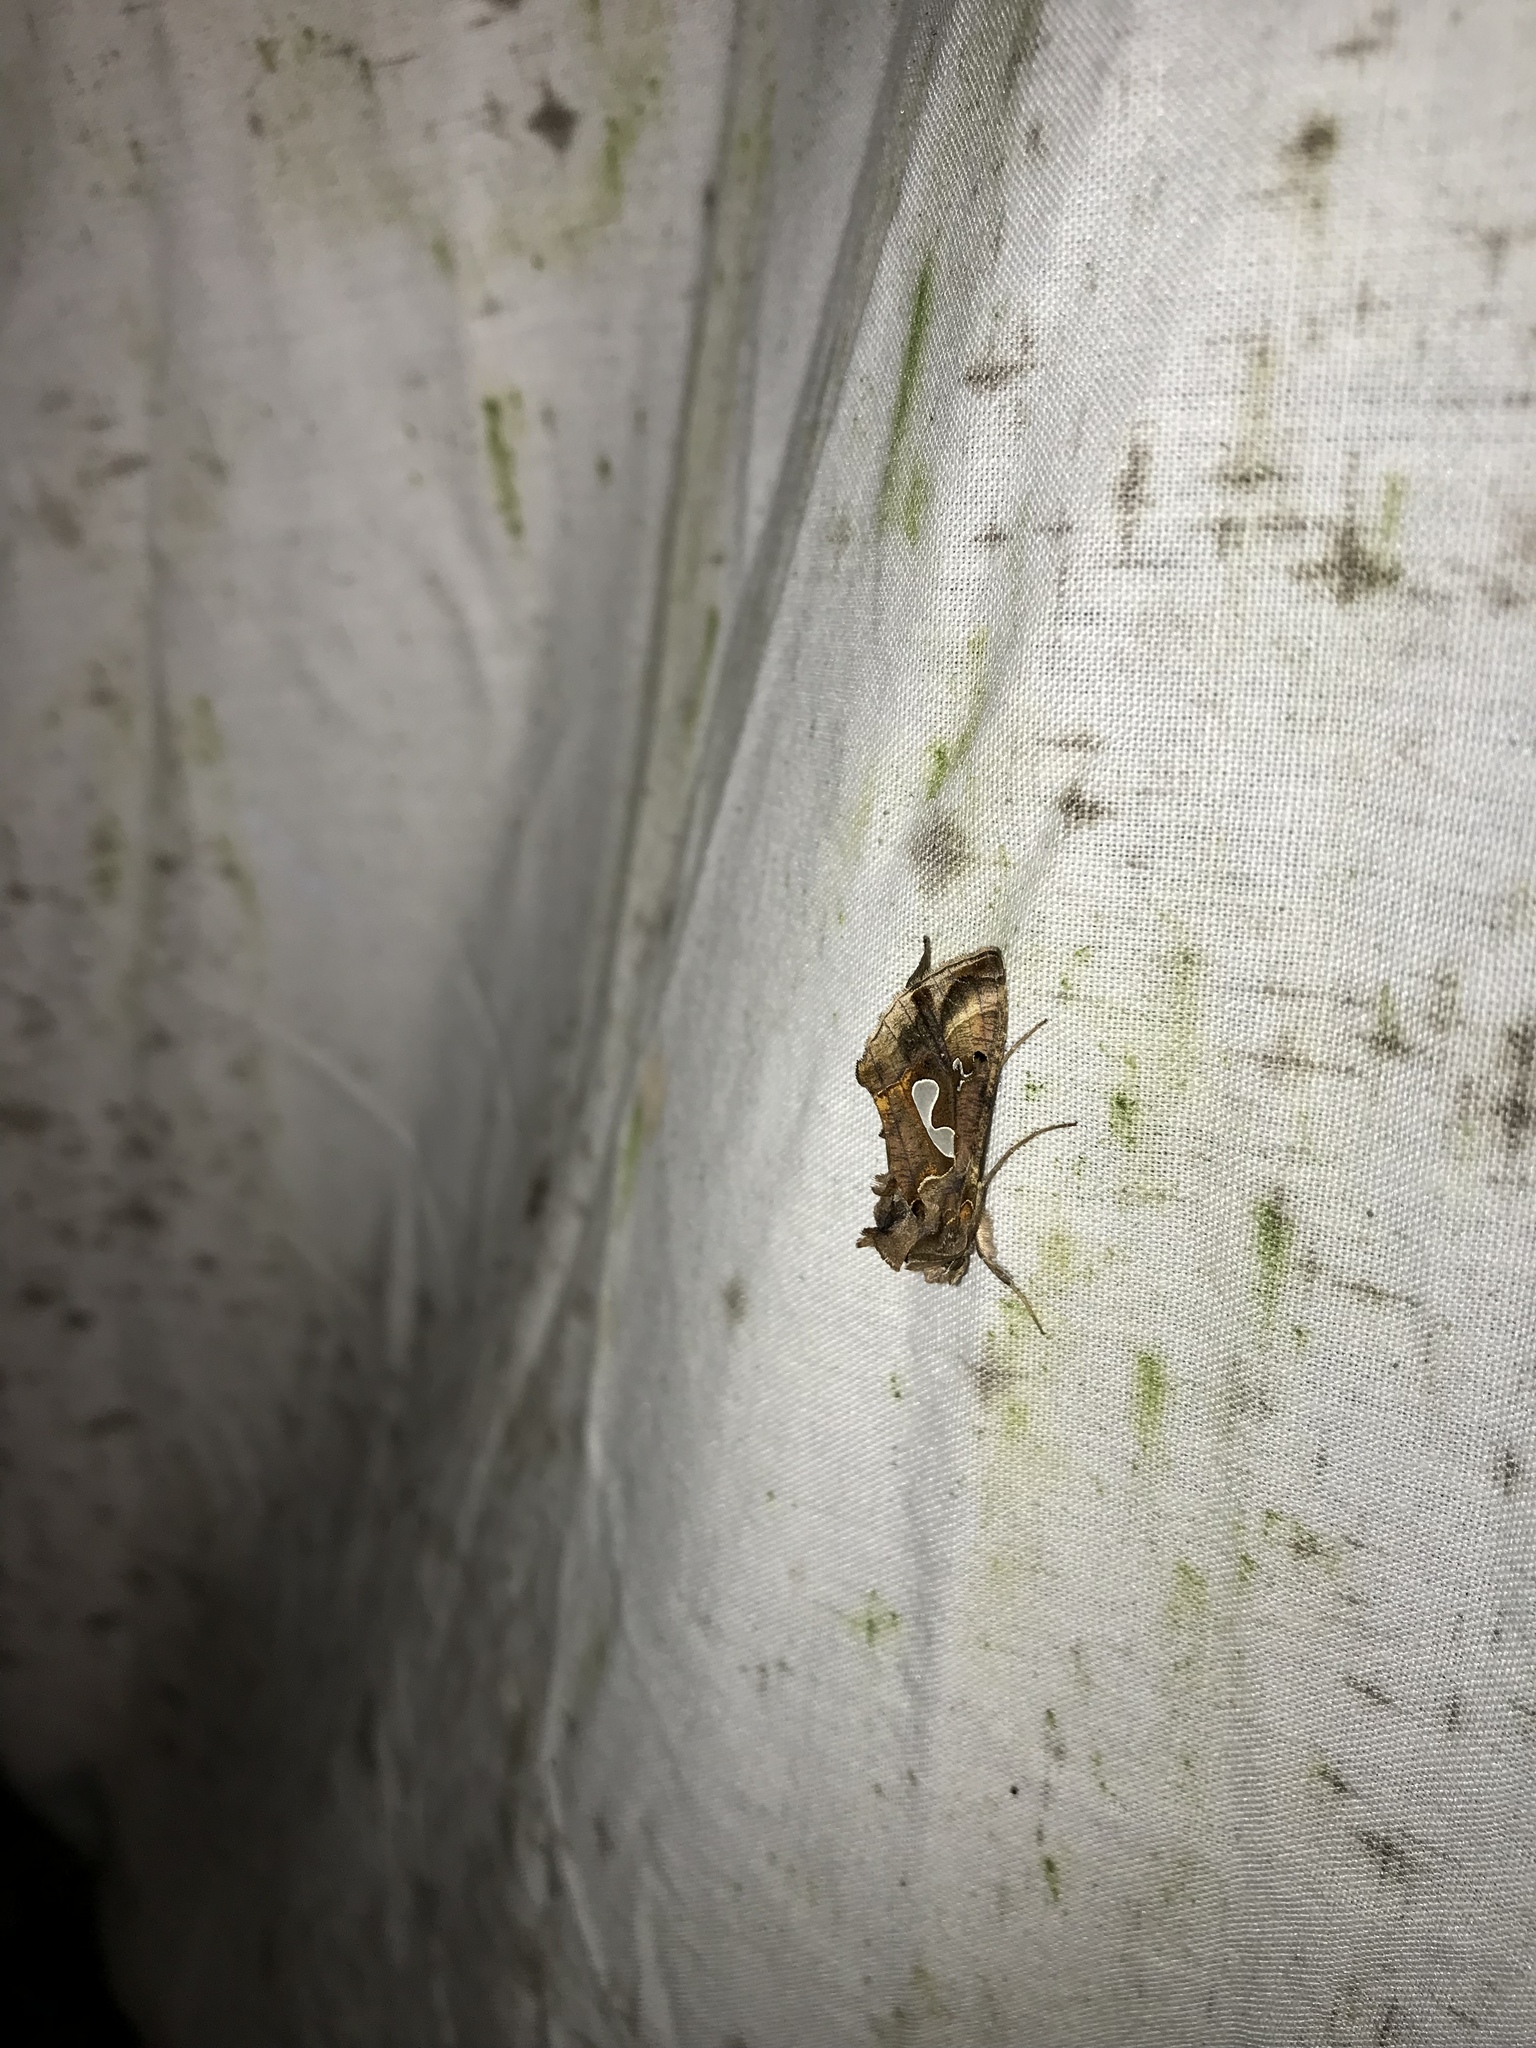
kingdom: Animalia
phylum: Arthropoda
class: Insecta
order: Lepidoptera
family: Noctuidae
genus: Megalographa
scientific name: Megalographa biloba
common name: Cutworm
